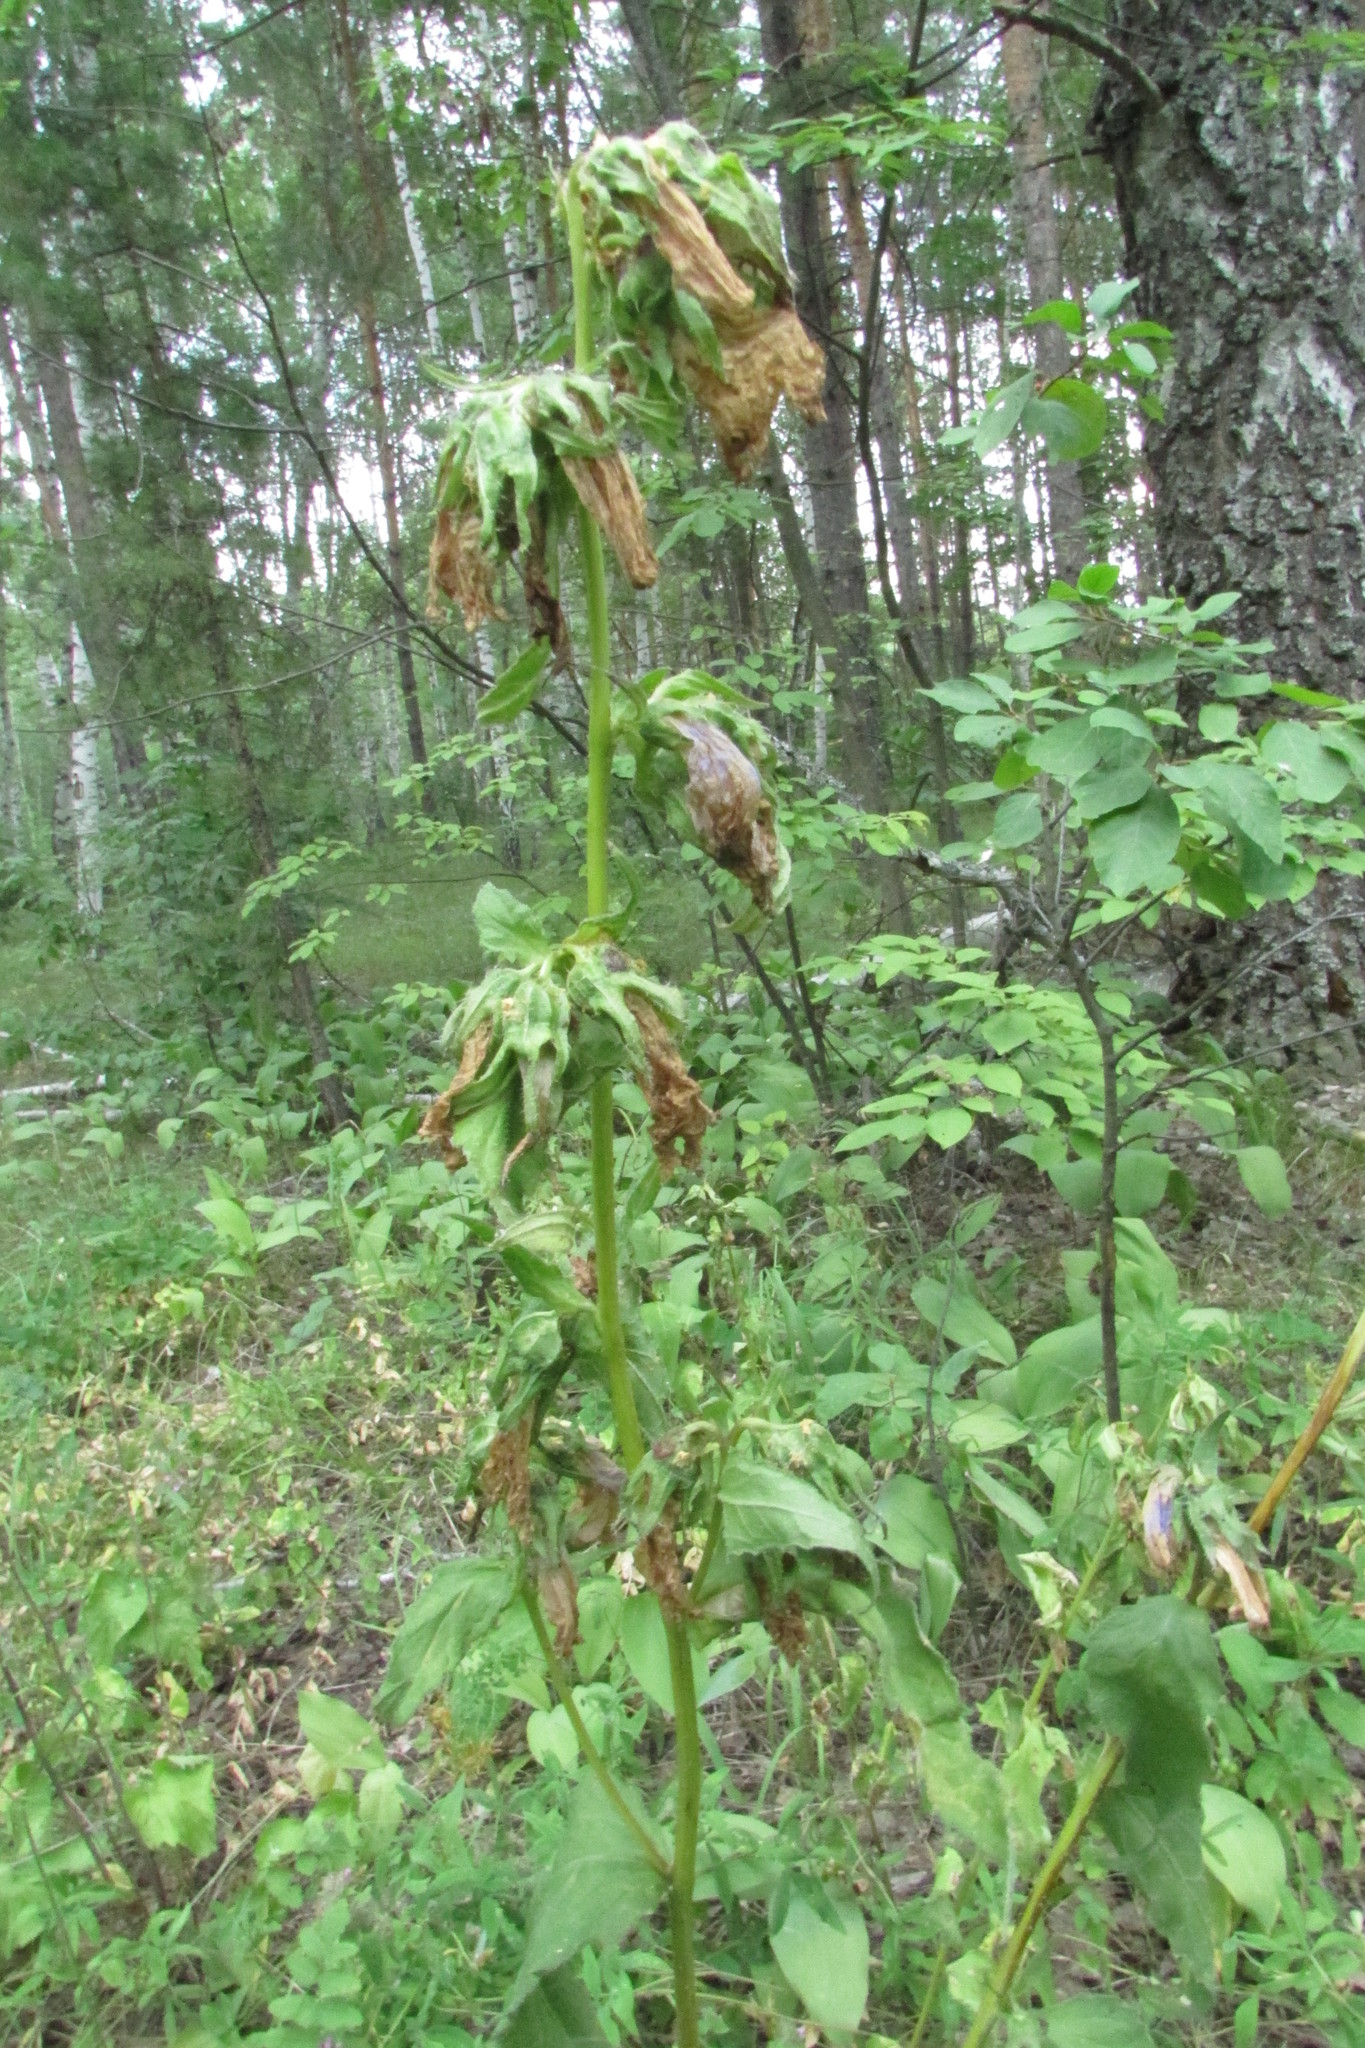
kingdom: Plantae
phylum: Tracheophyta
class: Magnoliopsida
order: Asterales
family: Campanulaceae
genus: Campanula
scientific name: Campanula trachelium
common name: Nettle-leaved bellflower
